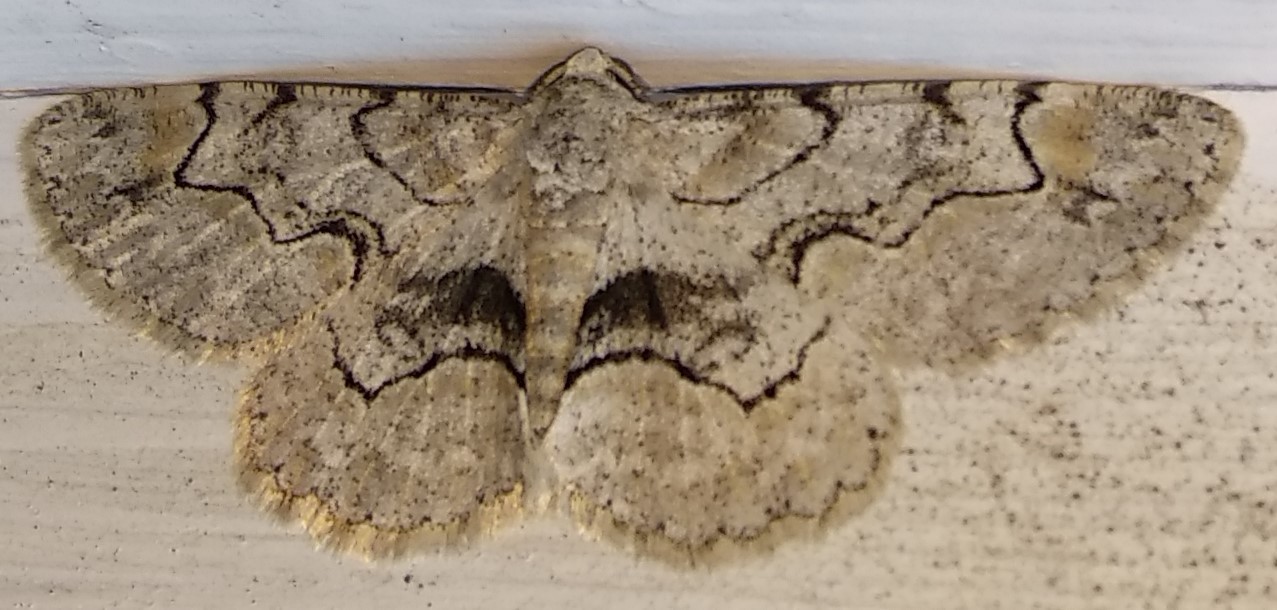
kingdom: Animalia
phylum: Arthropoda
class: Insecta
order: Lepidoptera
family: Geometridae
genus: Iridopsis
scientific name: Iridopsis larvaria
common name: Bent-line gray
